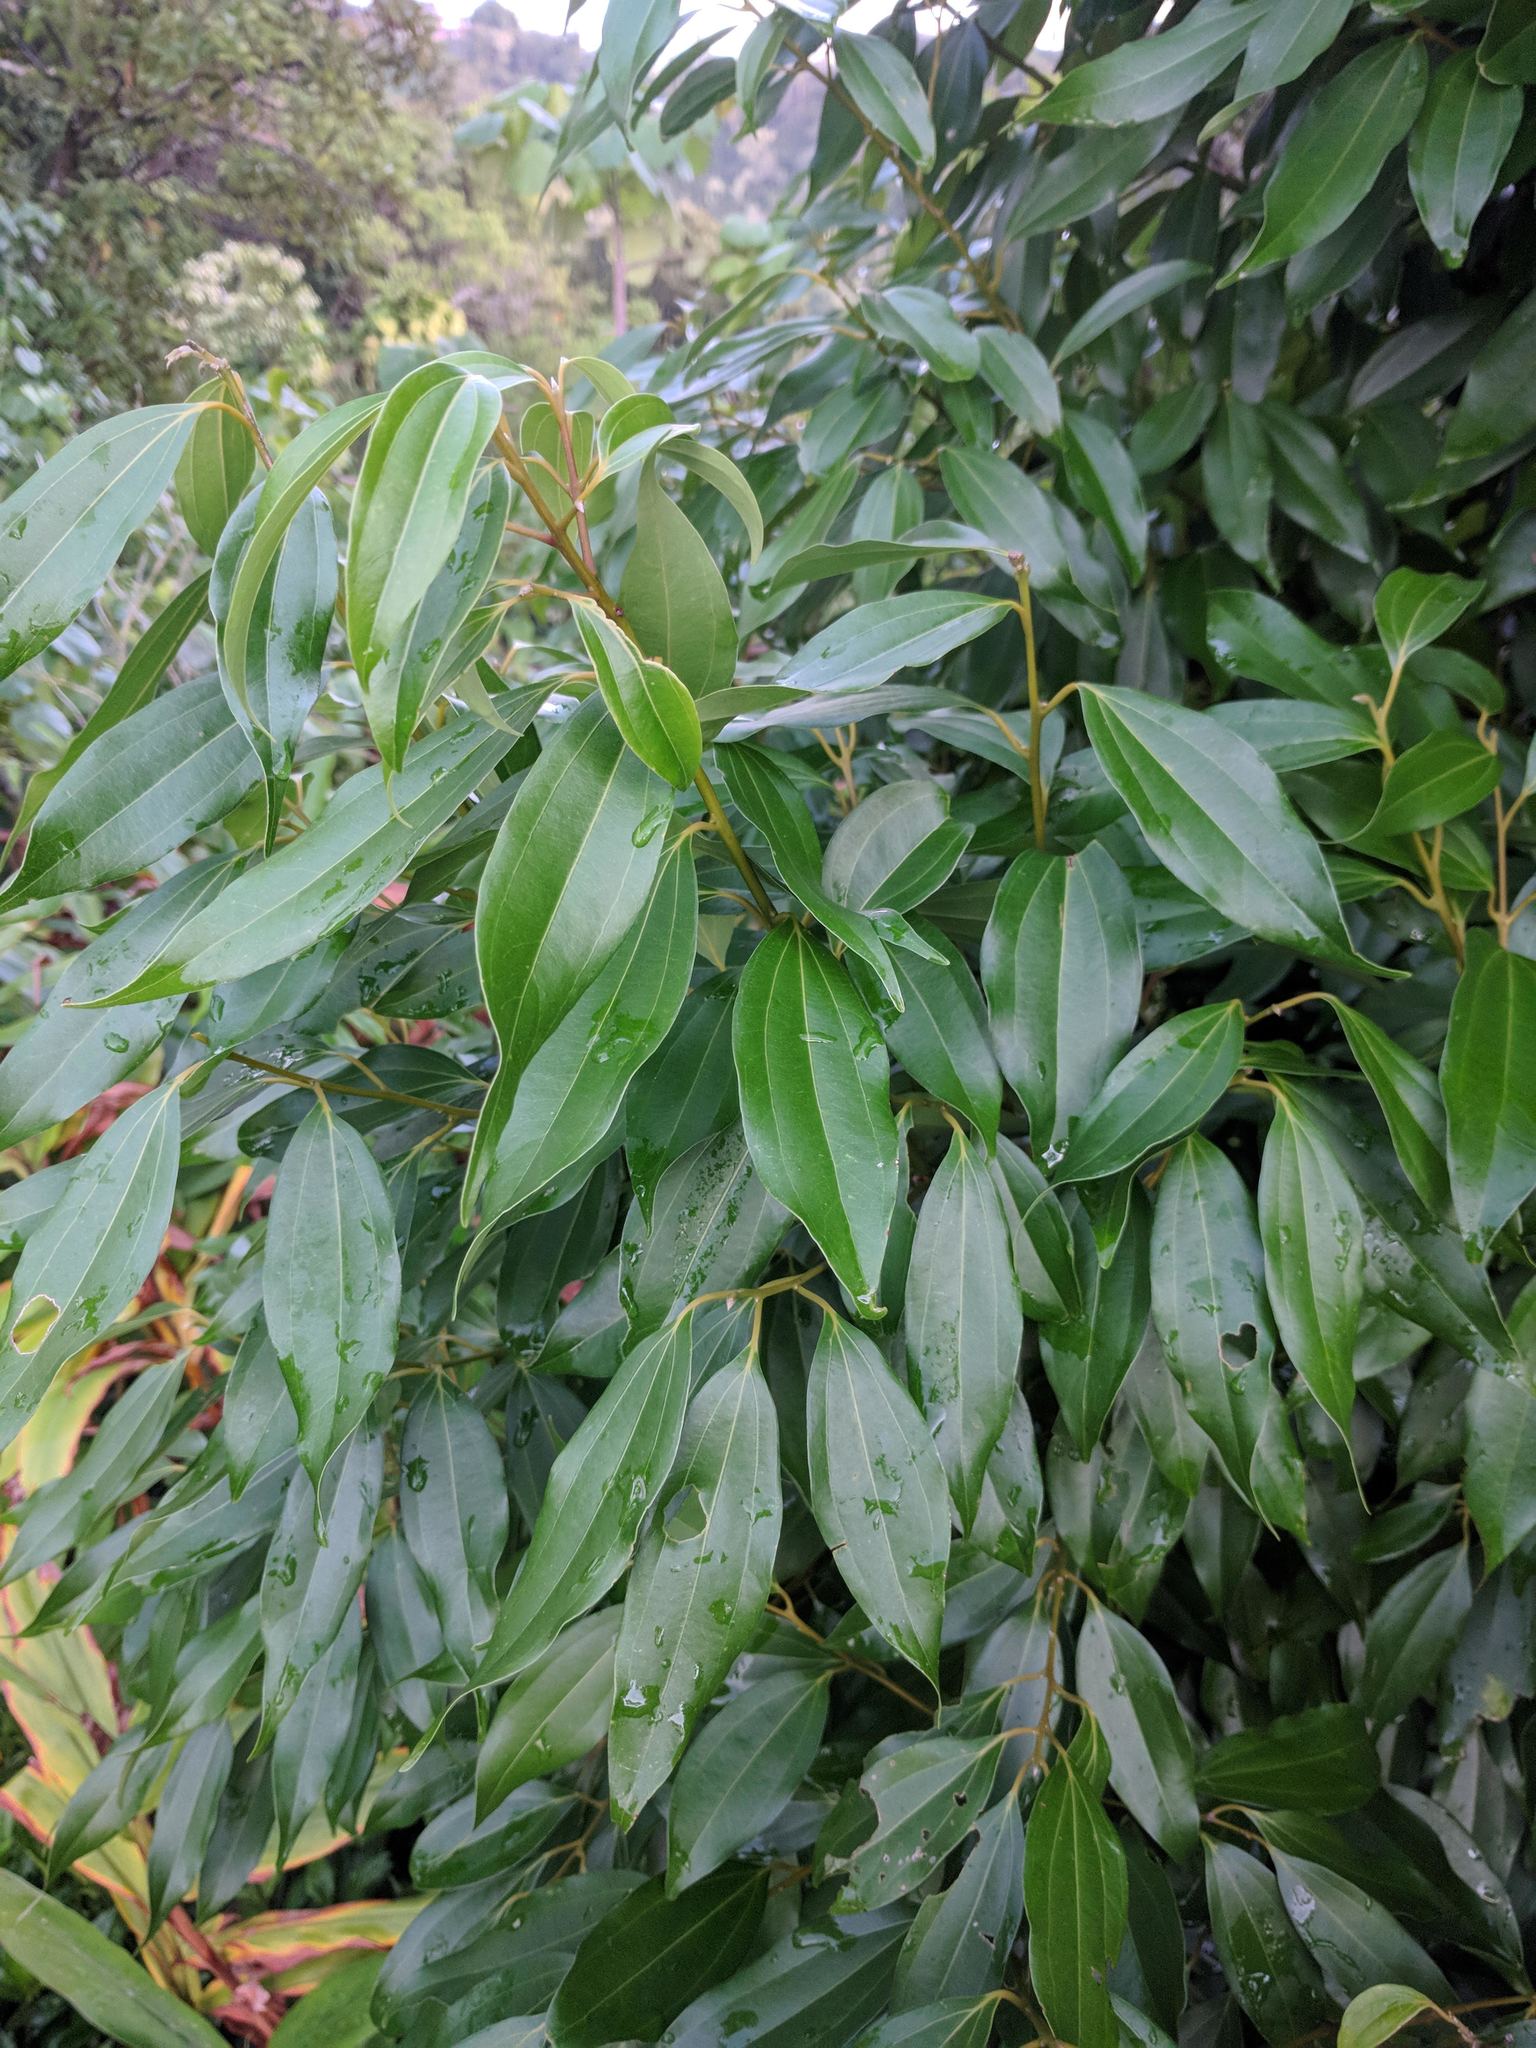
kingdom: Plantae
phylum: Tracheophyta
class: Magnoliopsida
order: Laurales
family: Lauraceae
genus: Cinnamomum
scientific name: Cinnamomum burmanni
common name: Padang cassia
